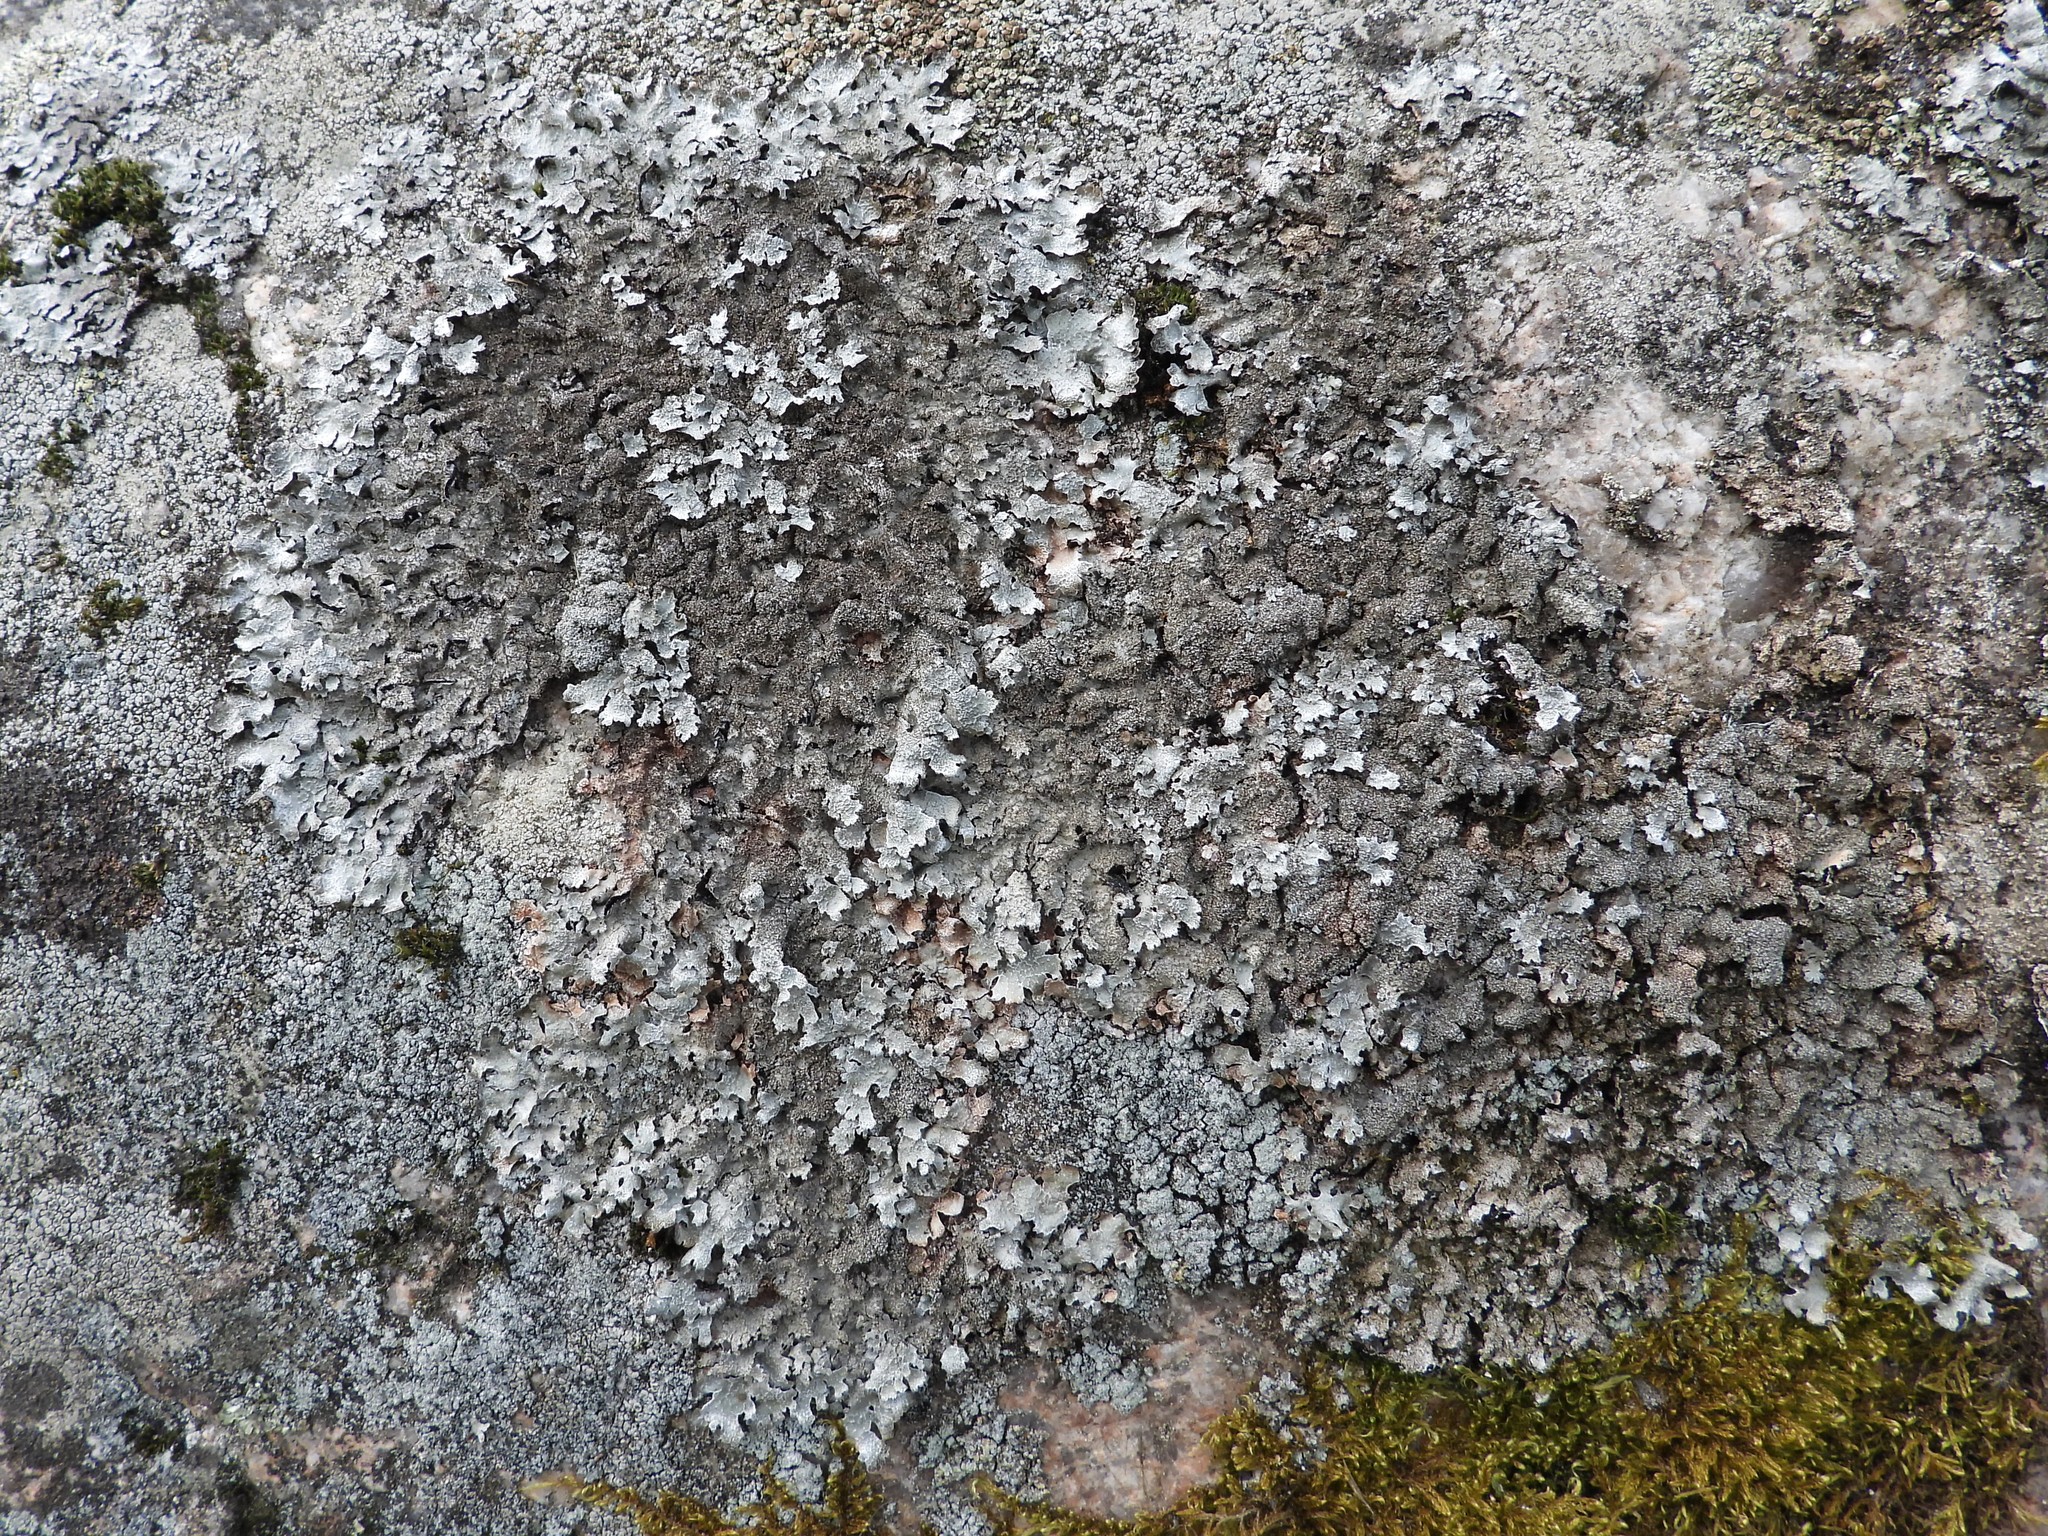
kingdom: Fungi
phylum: Ascomycota
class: Lecanoromycetes
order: Lecanorales
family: Parmeliaceae
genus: Parmelia
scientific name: Parmelia saxatilis
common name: Salted shield lichen
